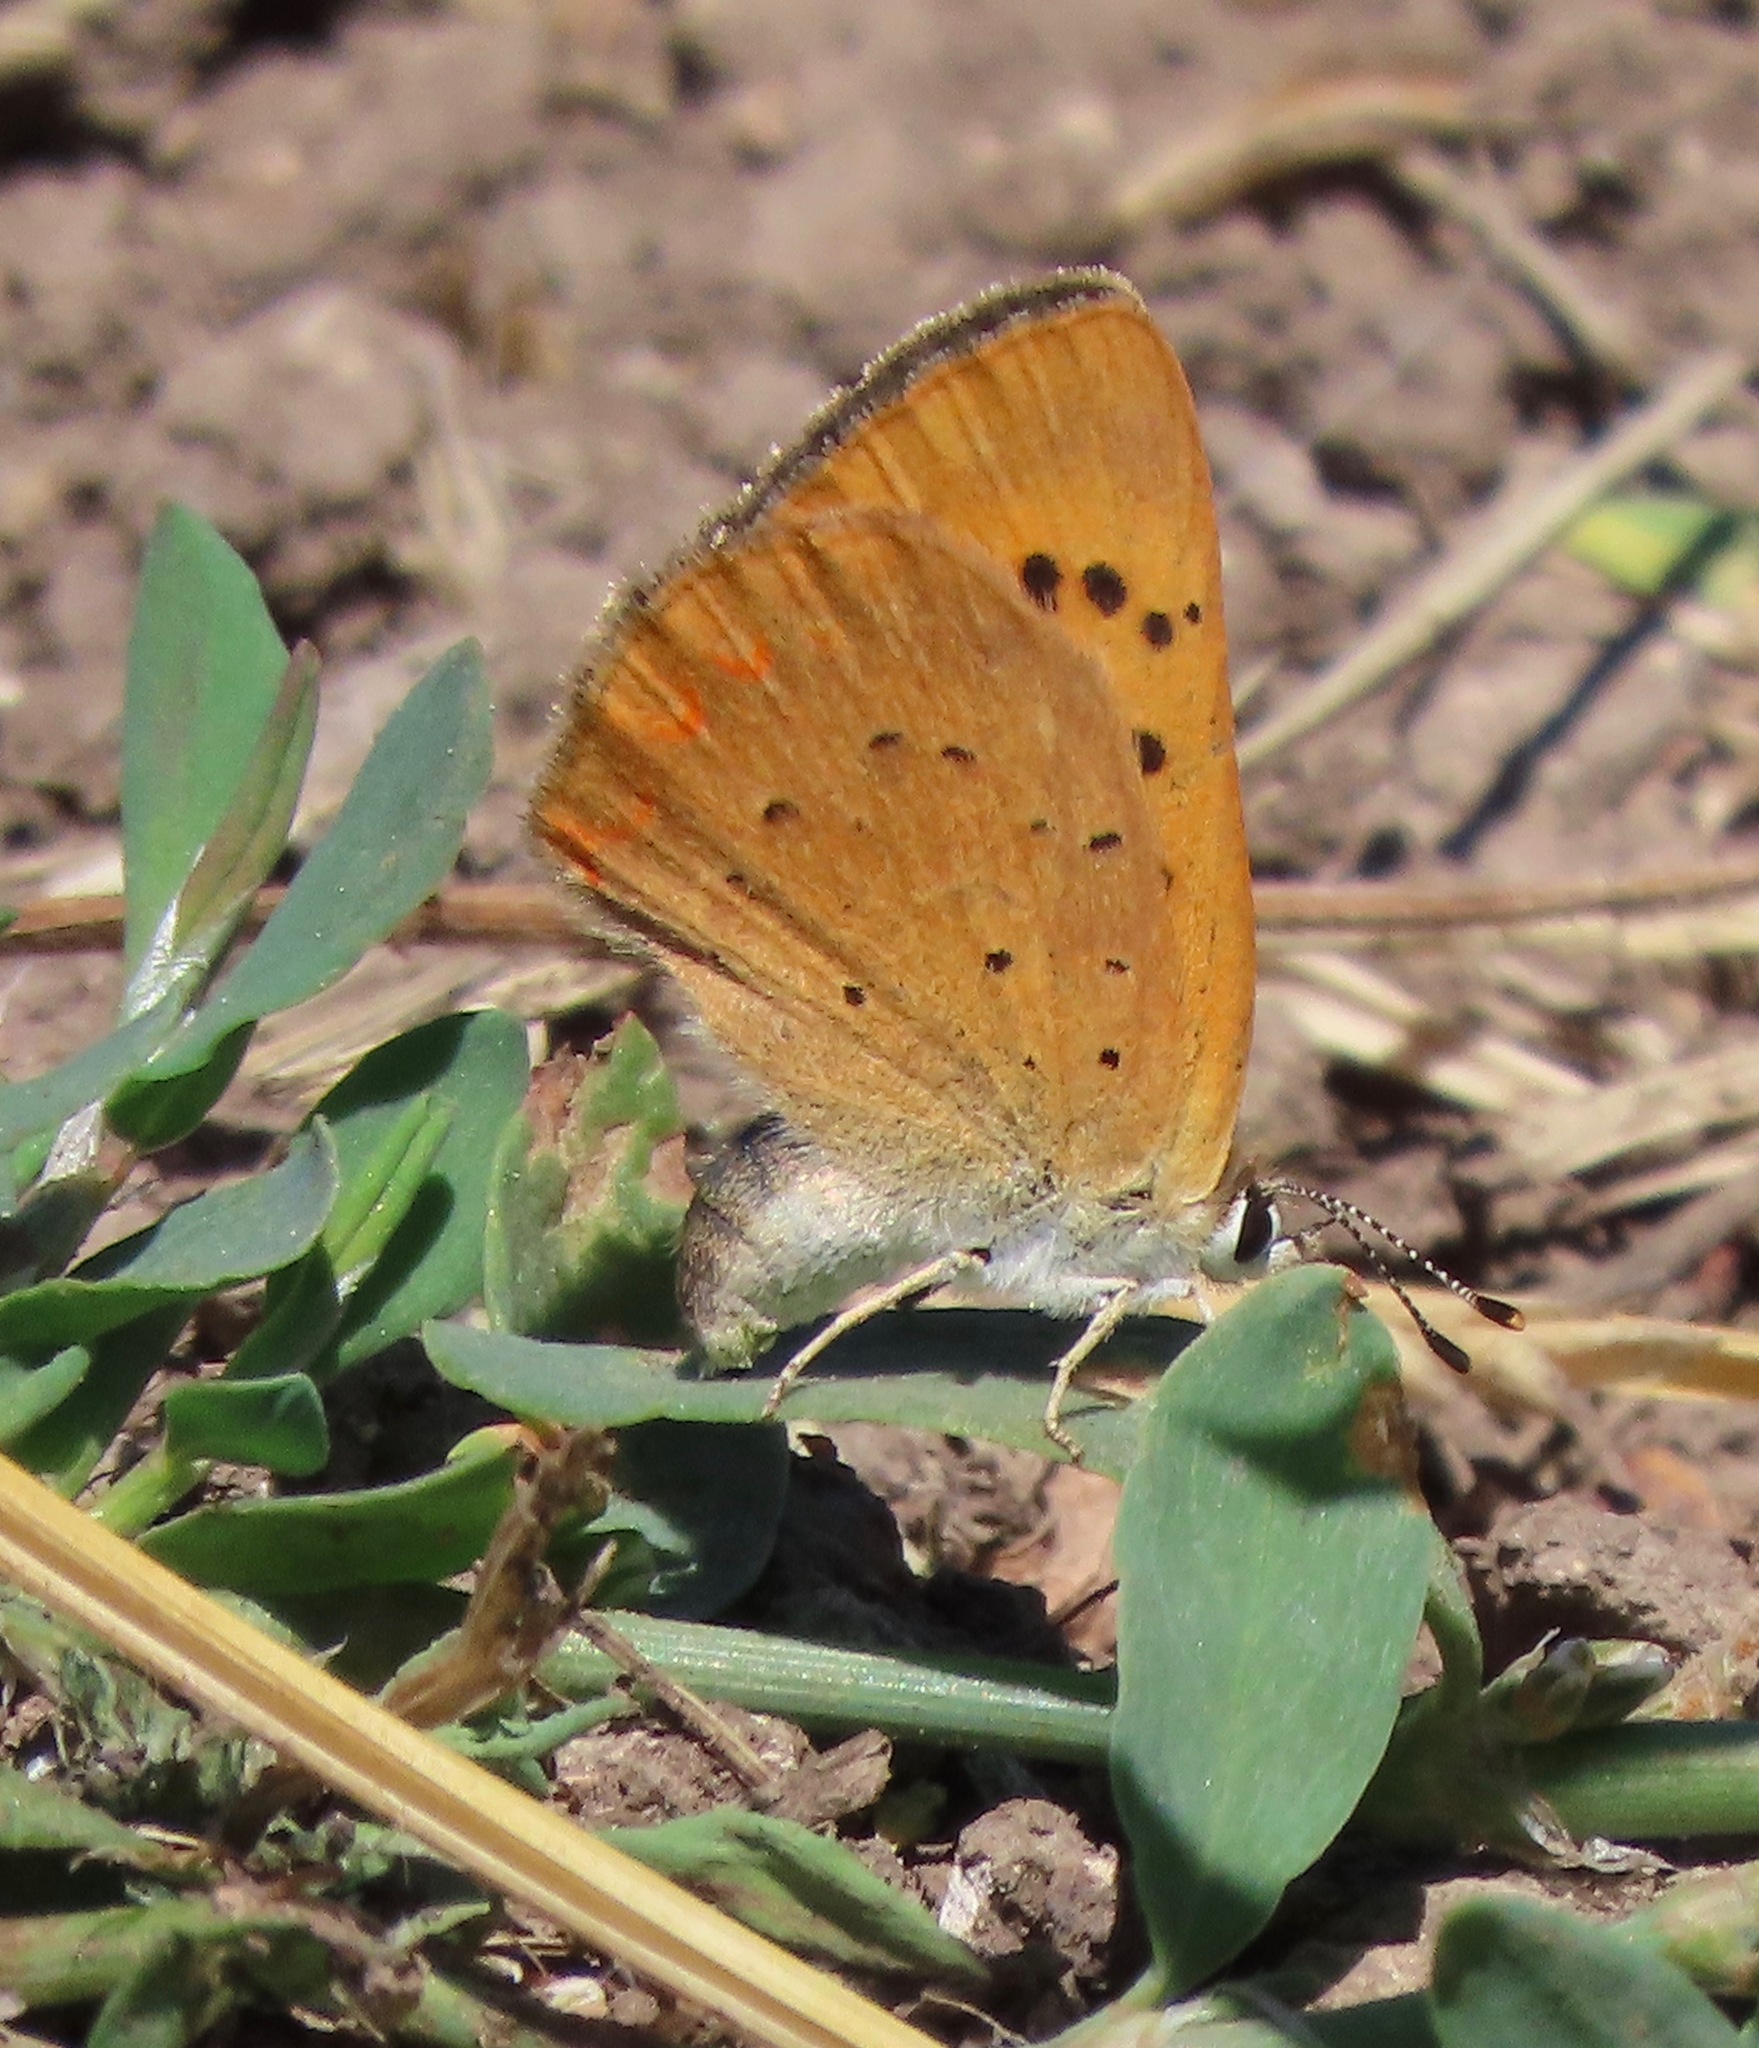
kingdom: Animalia
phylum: Arthropoda
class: Insecta
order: Lepidoptera
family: Lycaenidae
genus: Tharsalea
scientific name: Tharsalea helloides
